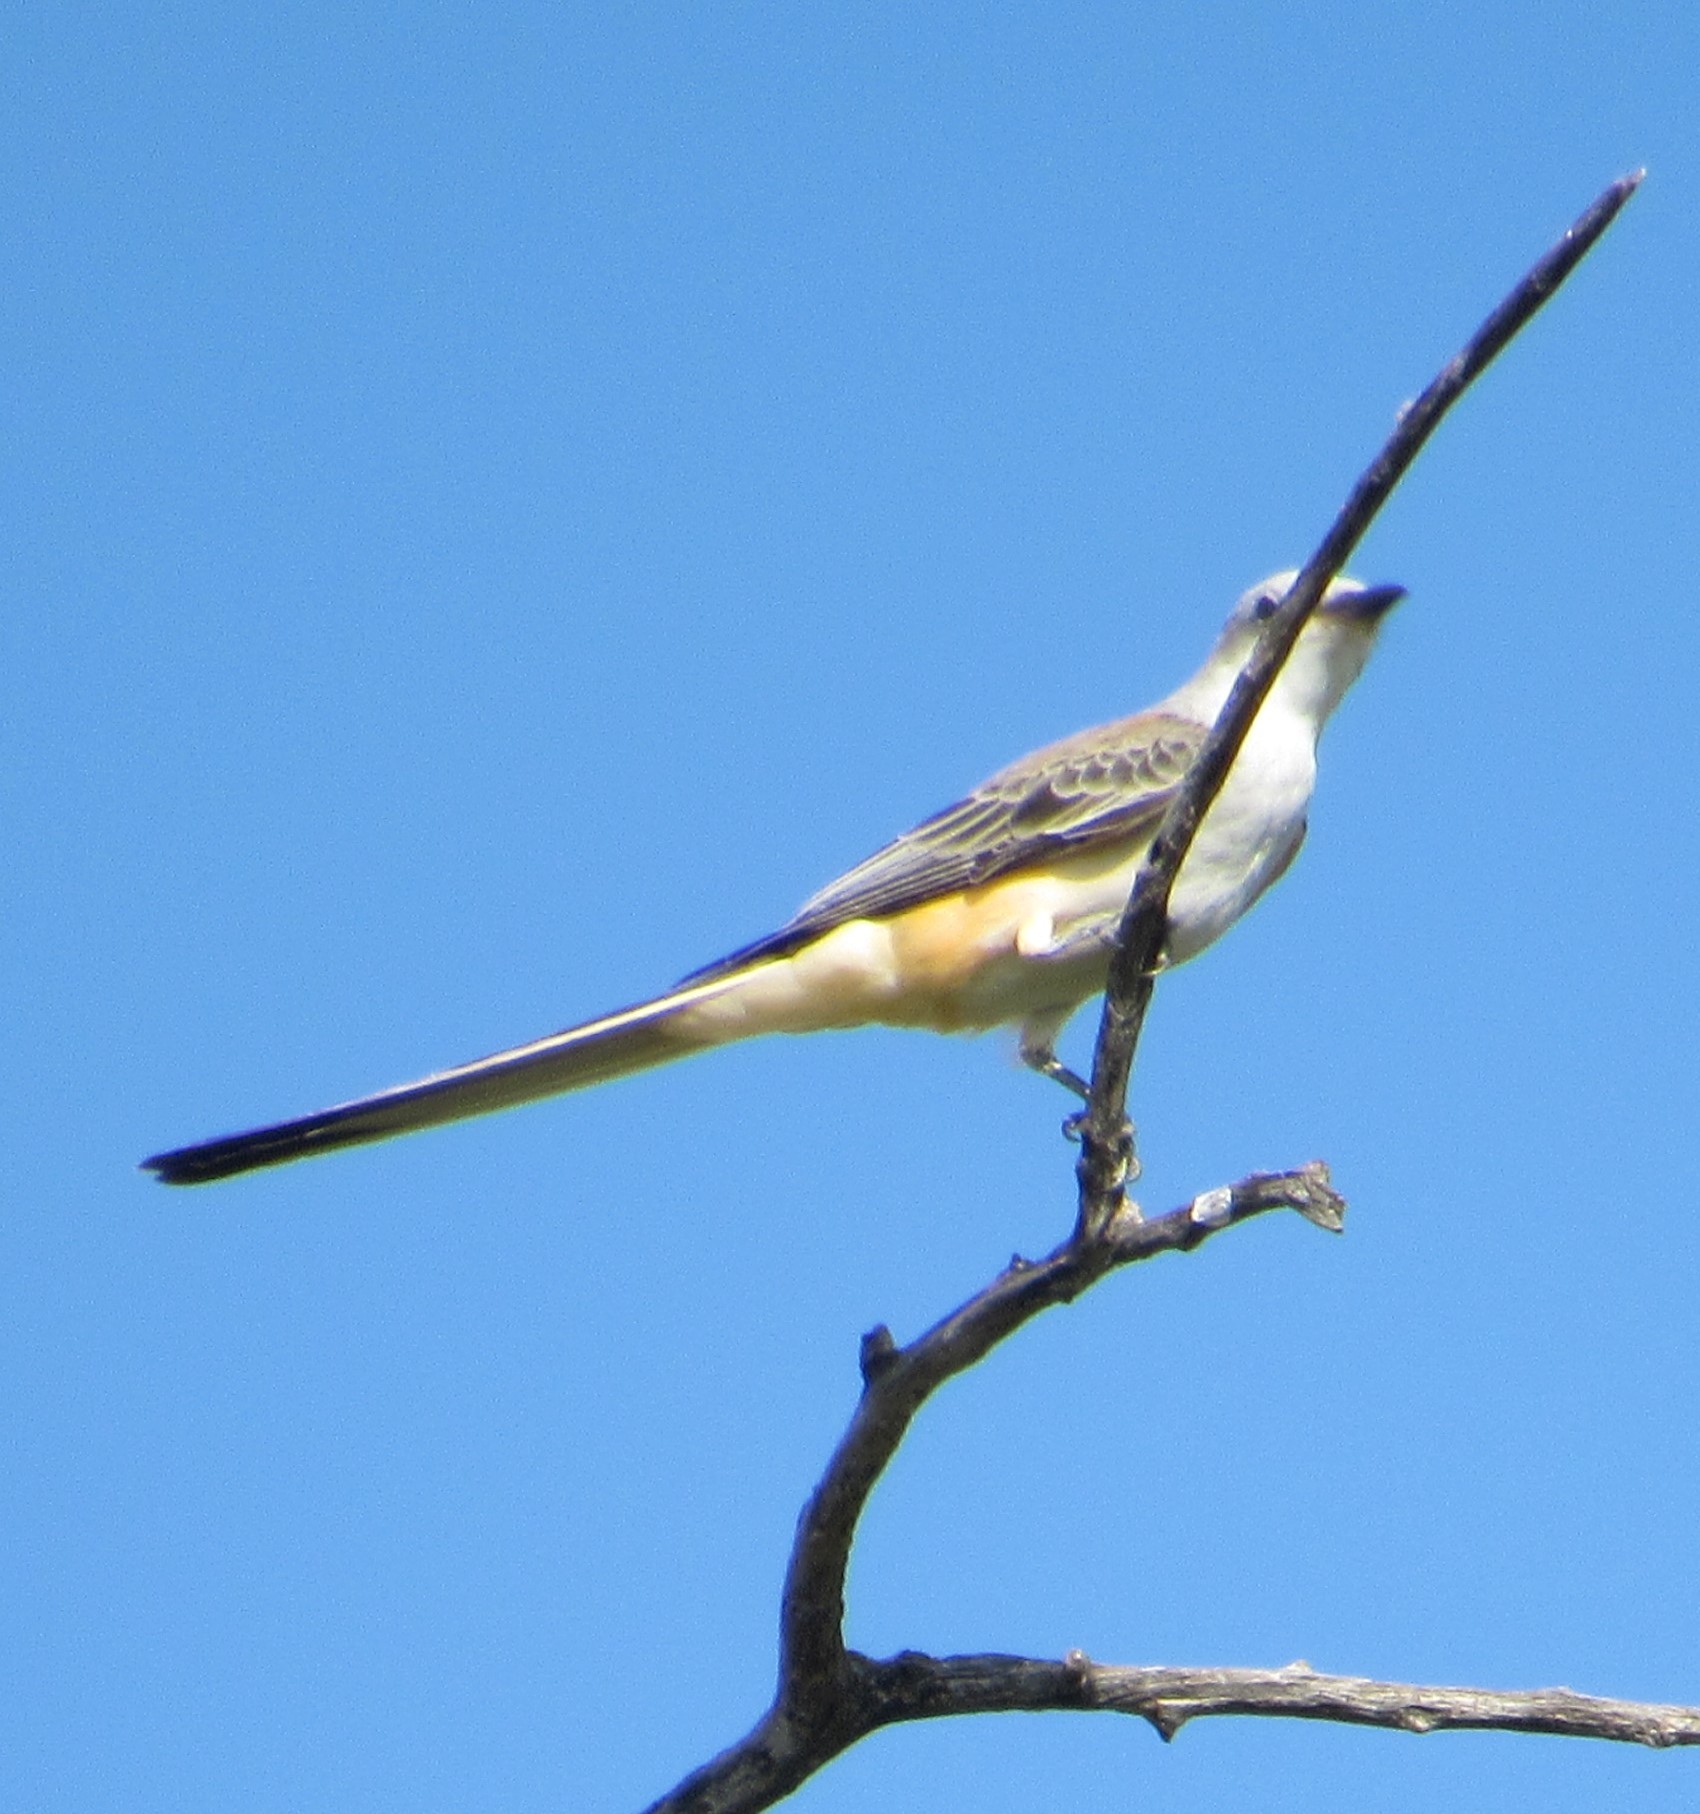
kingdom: Animalia
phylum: Chordata
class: Aves
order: Passeriformes
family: Tyrannidae
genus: Tyrannus
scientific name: Tyrannus forficatus
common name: Scissor-tailed flycatcher
